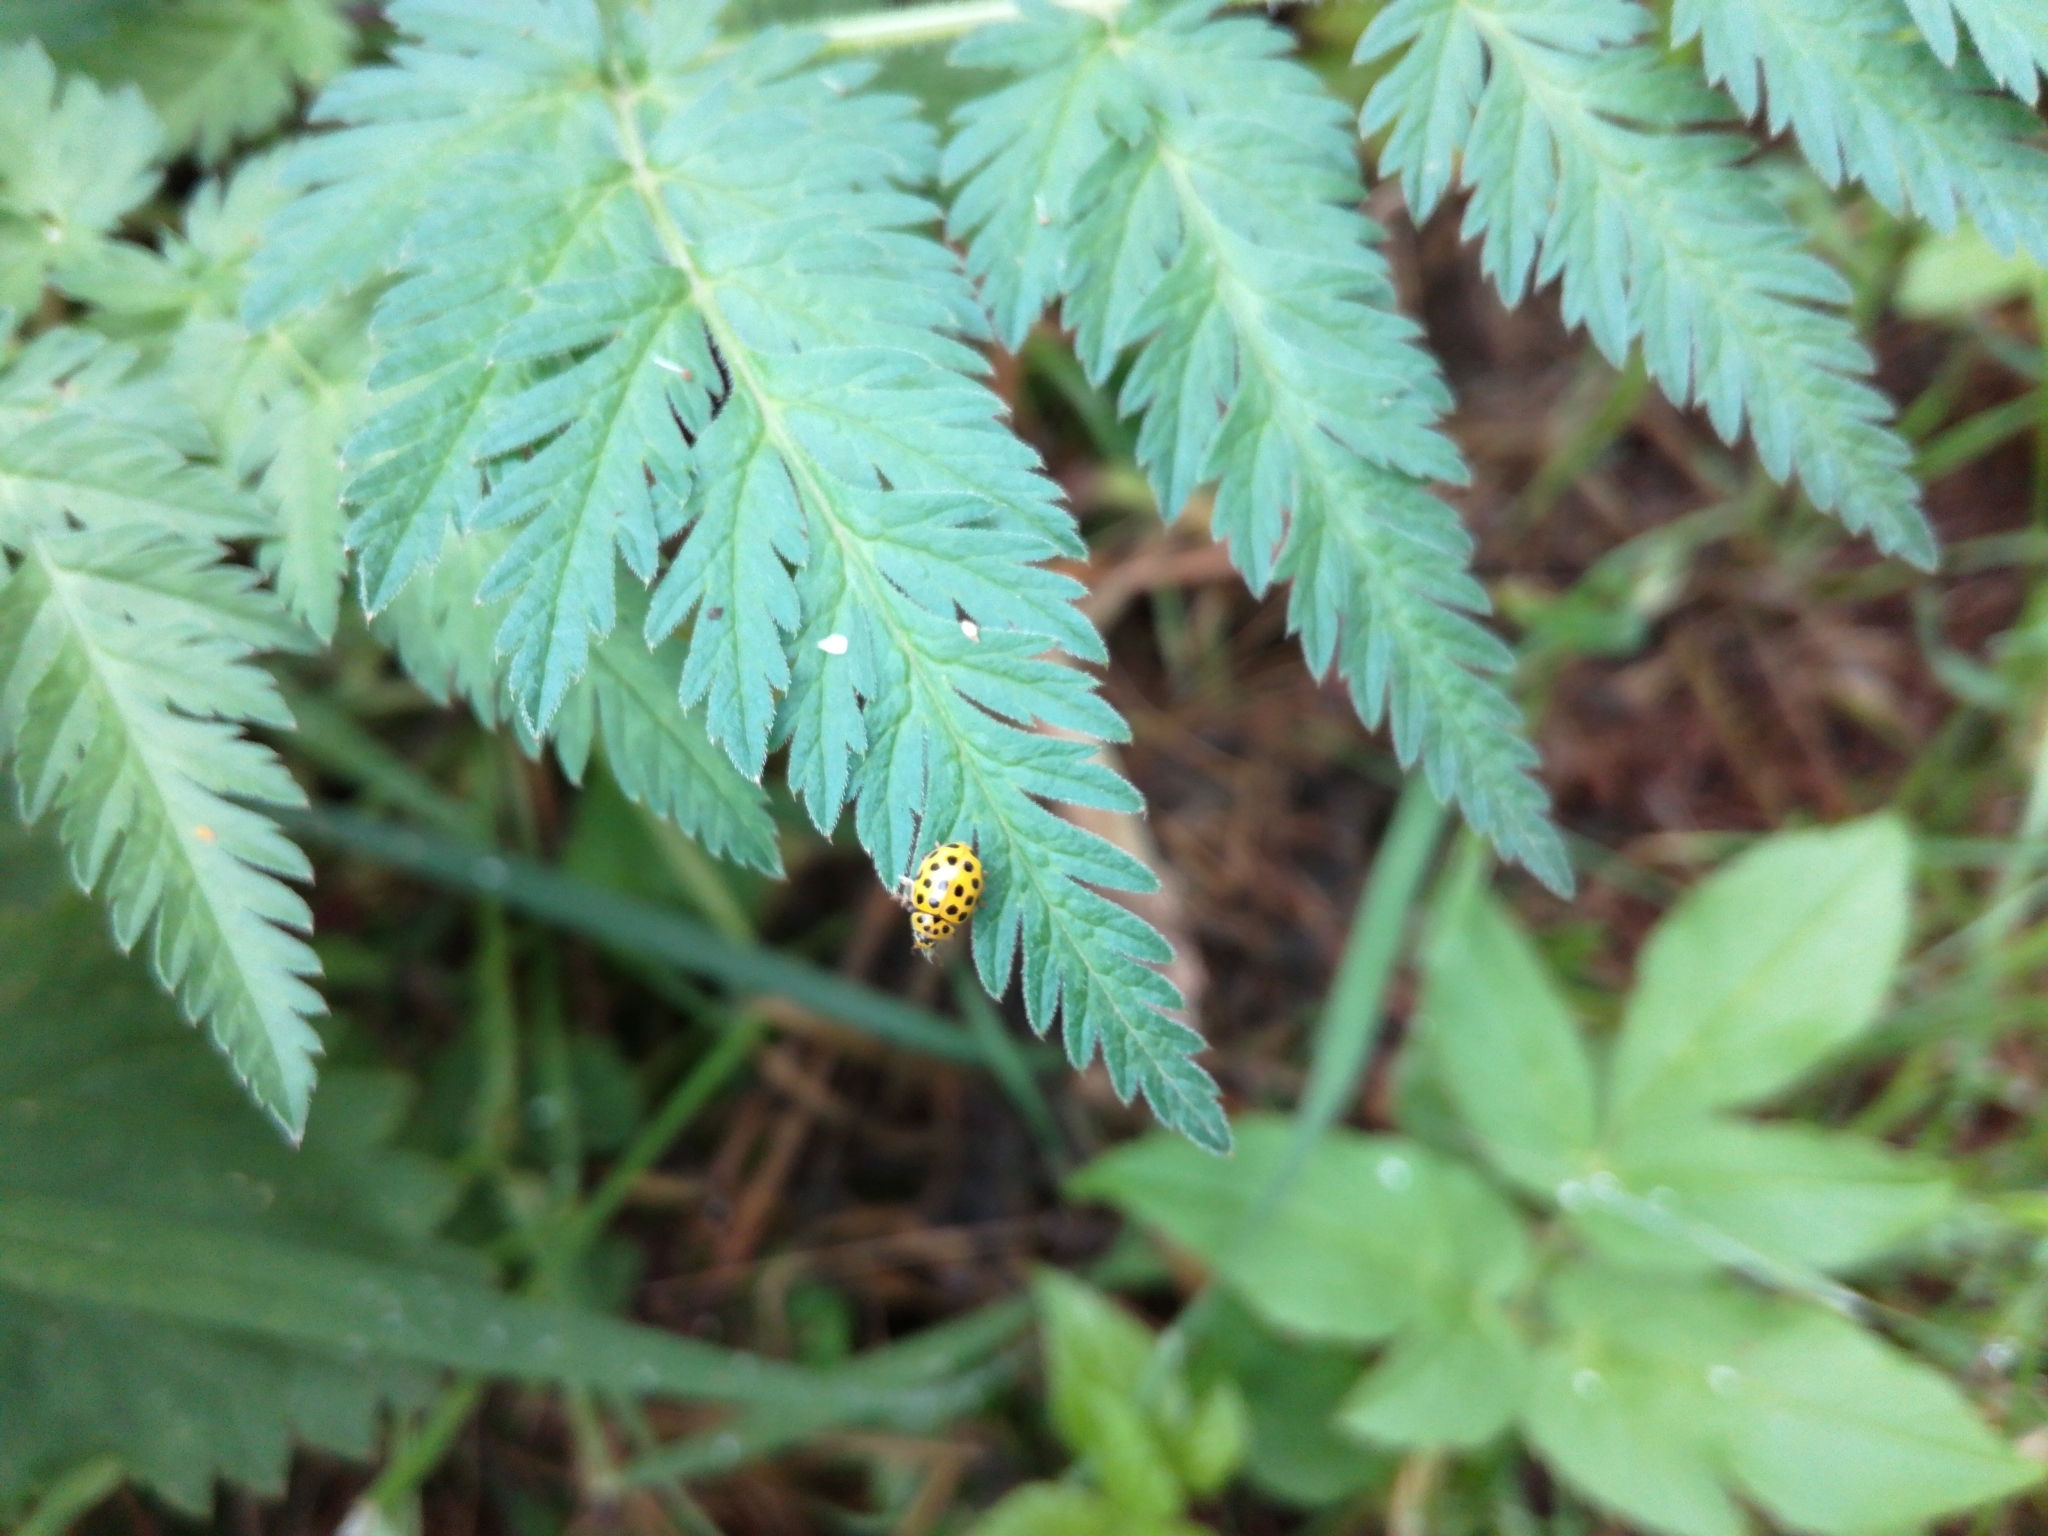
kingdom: Animalia
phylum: Arthropoda
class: Insecta
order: Coleoptera
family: Coccinellidae
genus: Psyllobora
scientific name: Psyllobora vigintiduopunctata
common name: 22-spot ladybird
